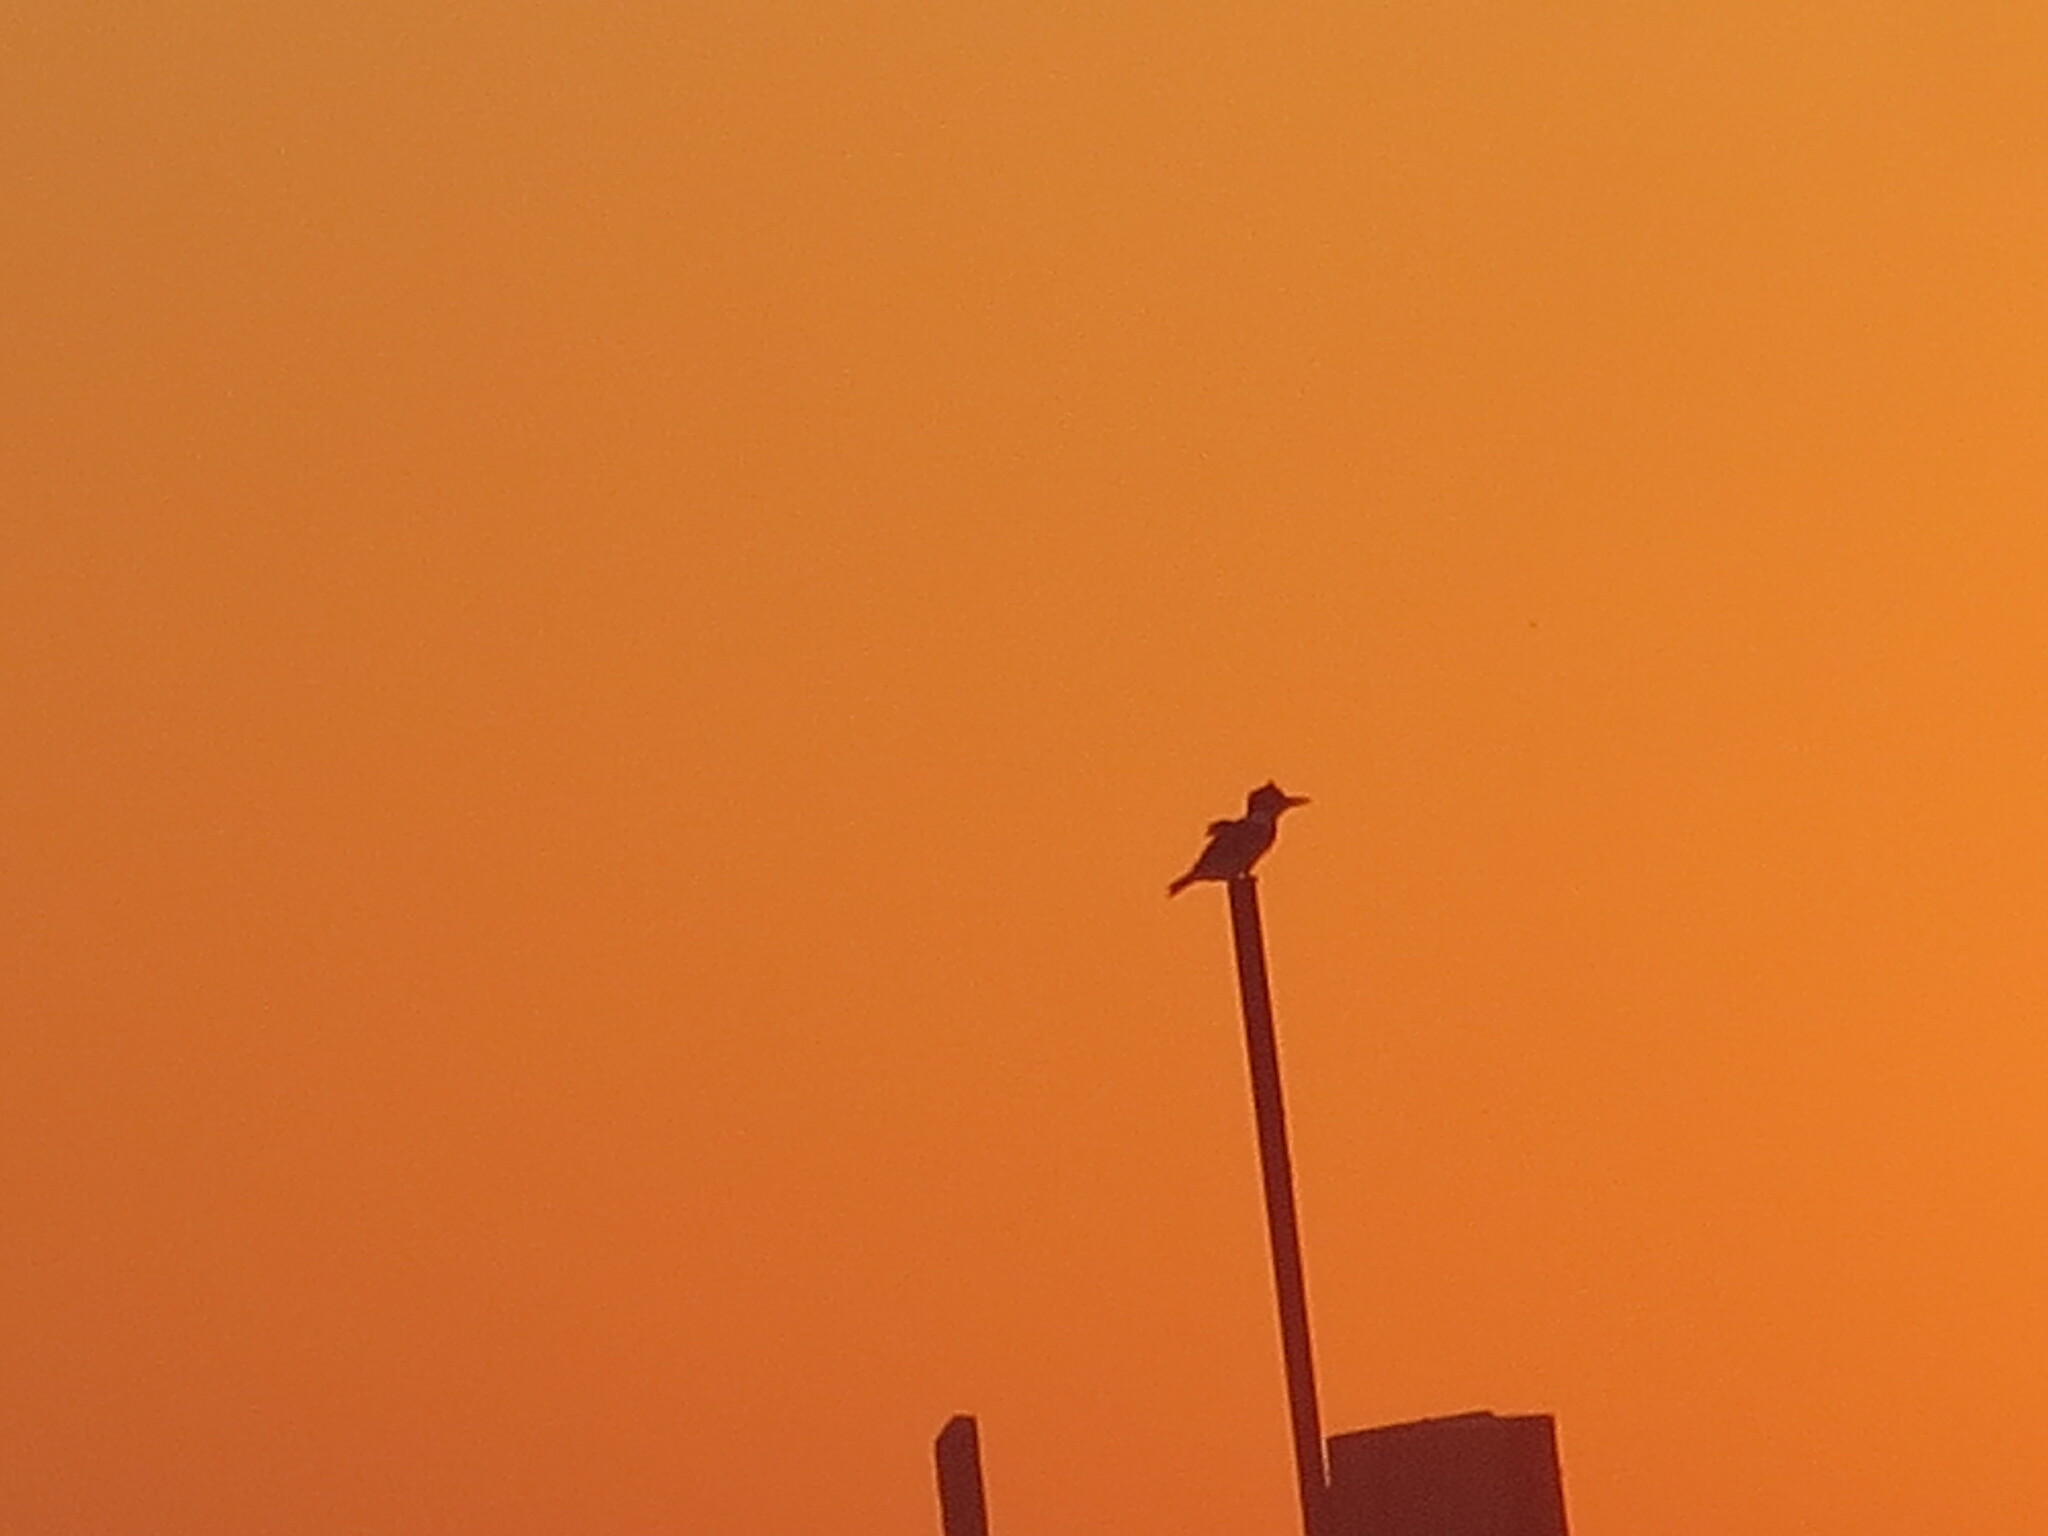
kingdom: Animalia
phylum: Chordata
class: Aves
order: Coraciiformes
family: Alcedinidae
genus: Megaceryle
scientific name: Megaceryle alcyon
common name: Belted kingfisher
